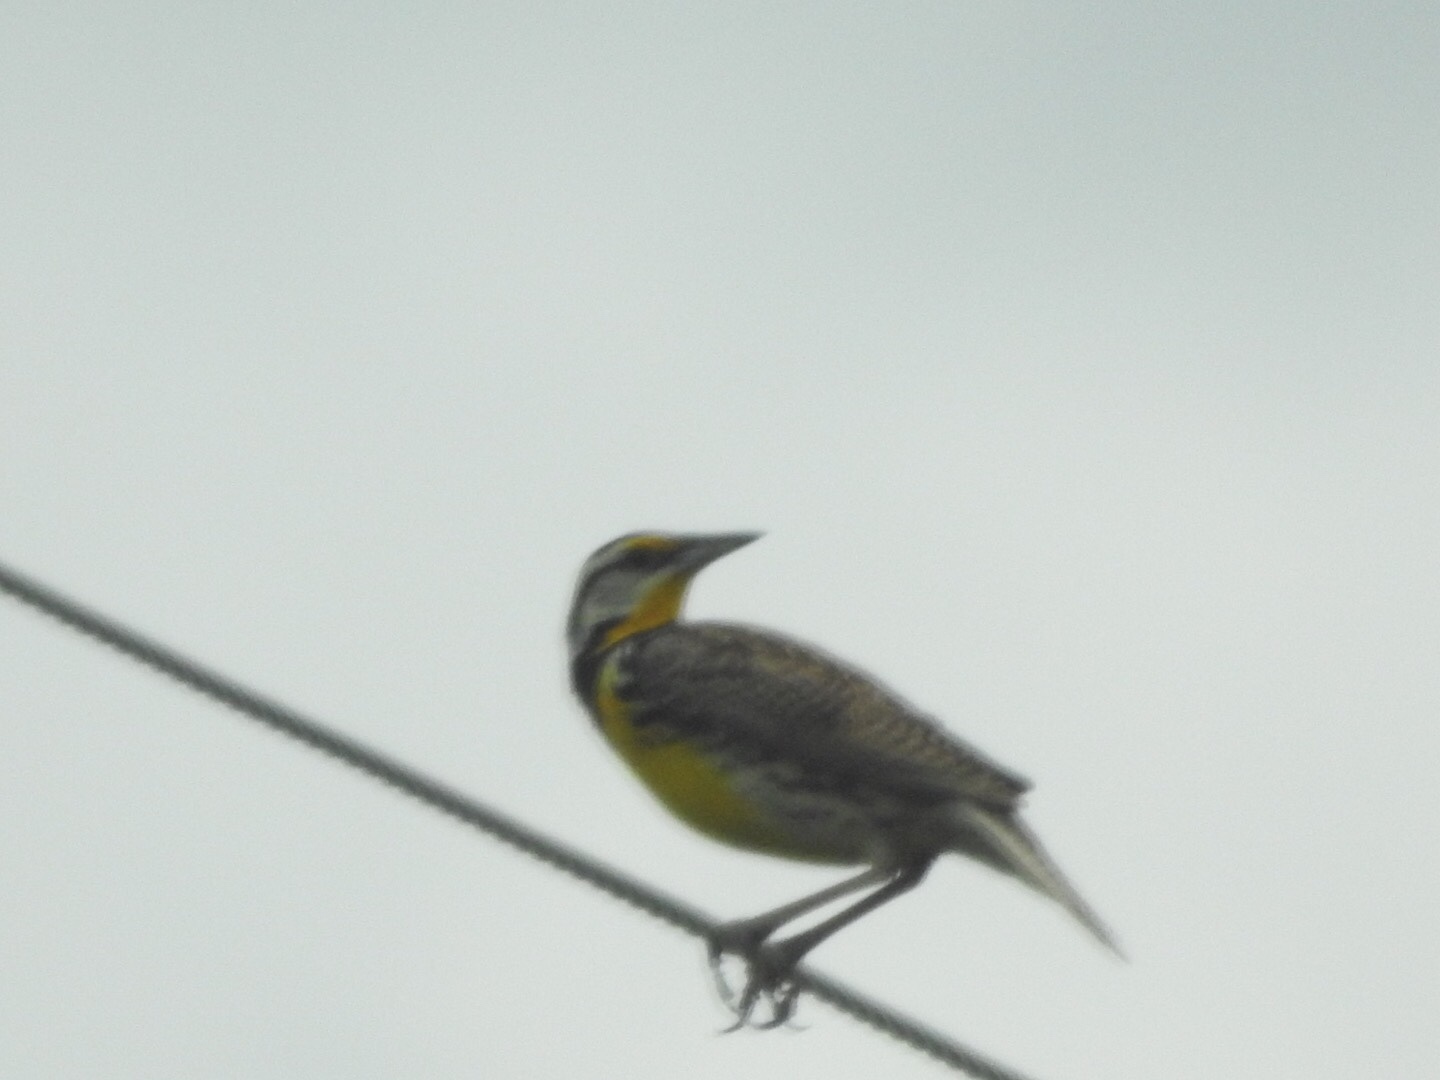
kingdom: Animalia
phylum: Chordata
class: Aves
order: Passeriformes
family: Icteridae
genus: Sturnella
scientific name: Sturnella magna
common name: Eastern meadowlark
